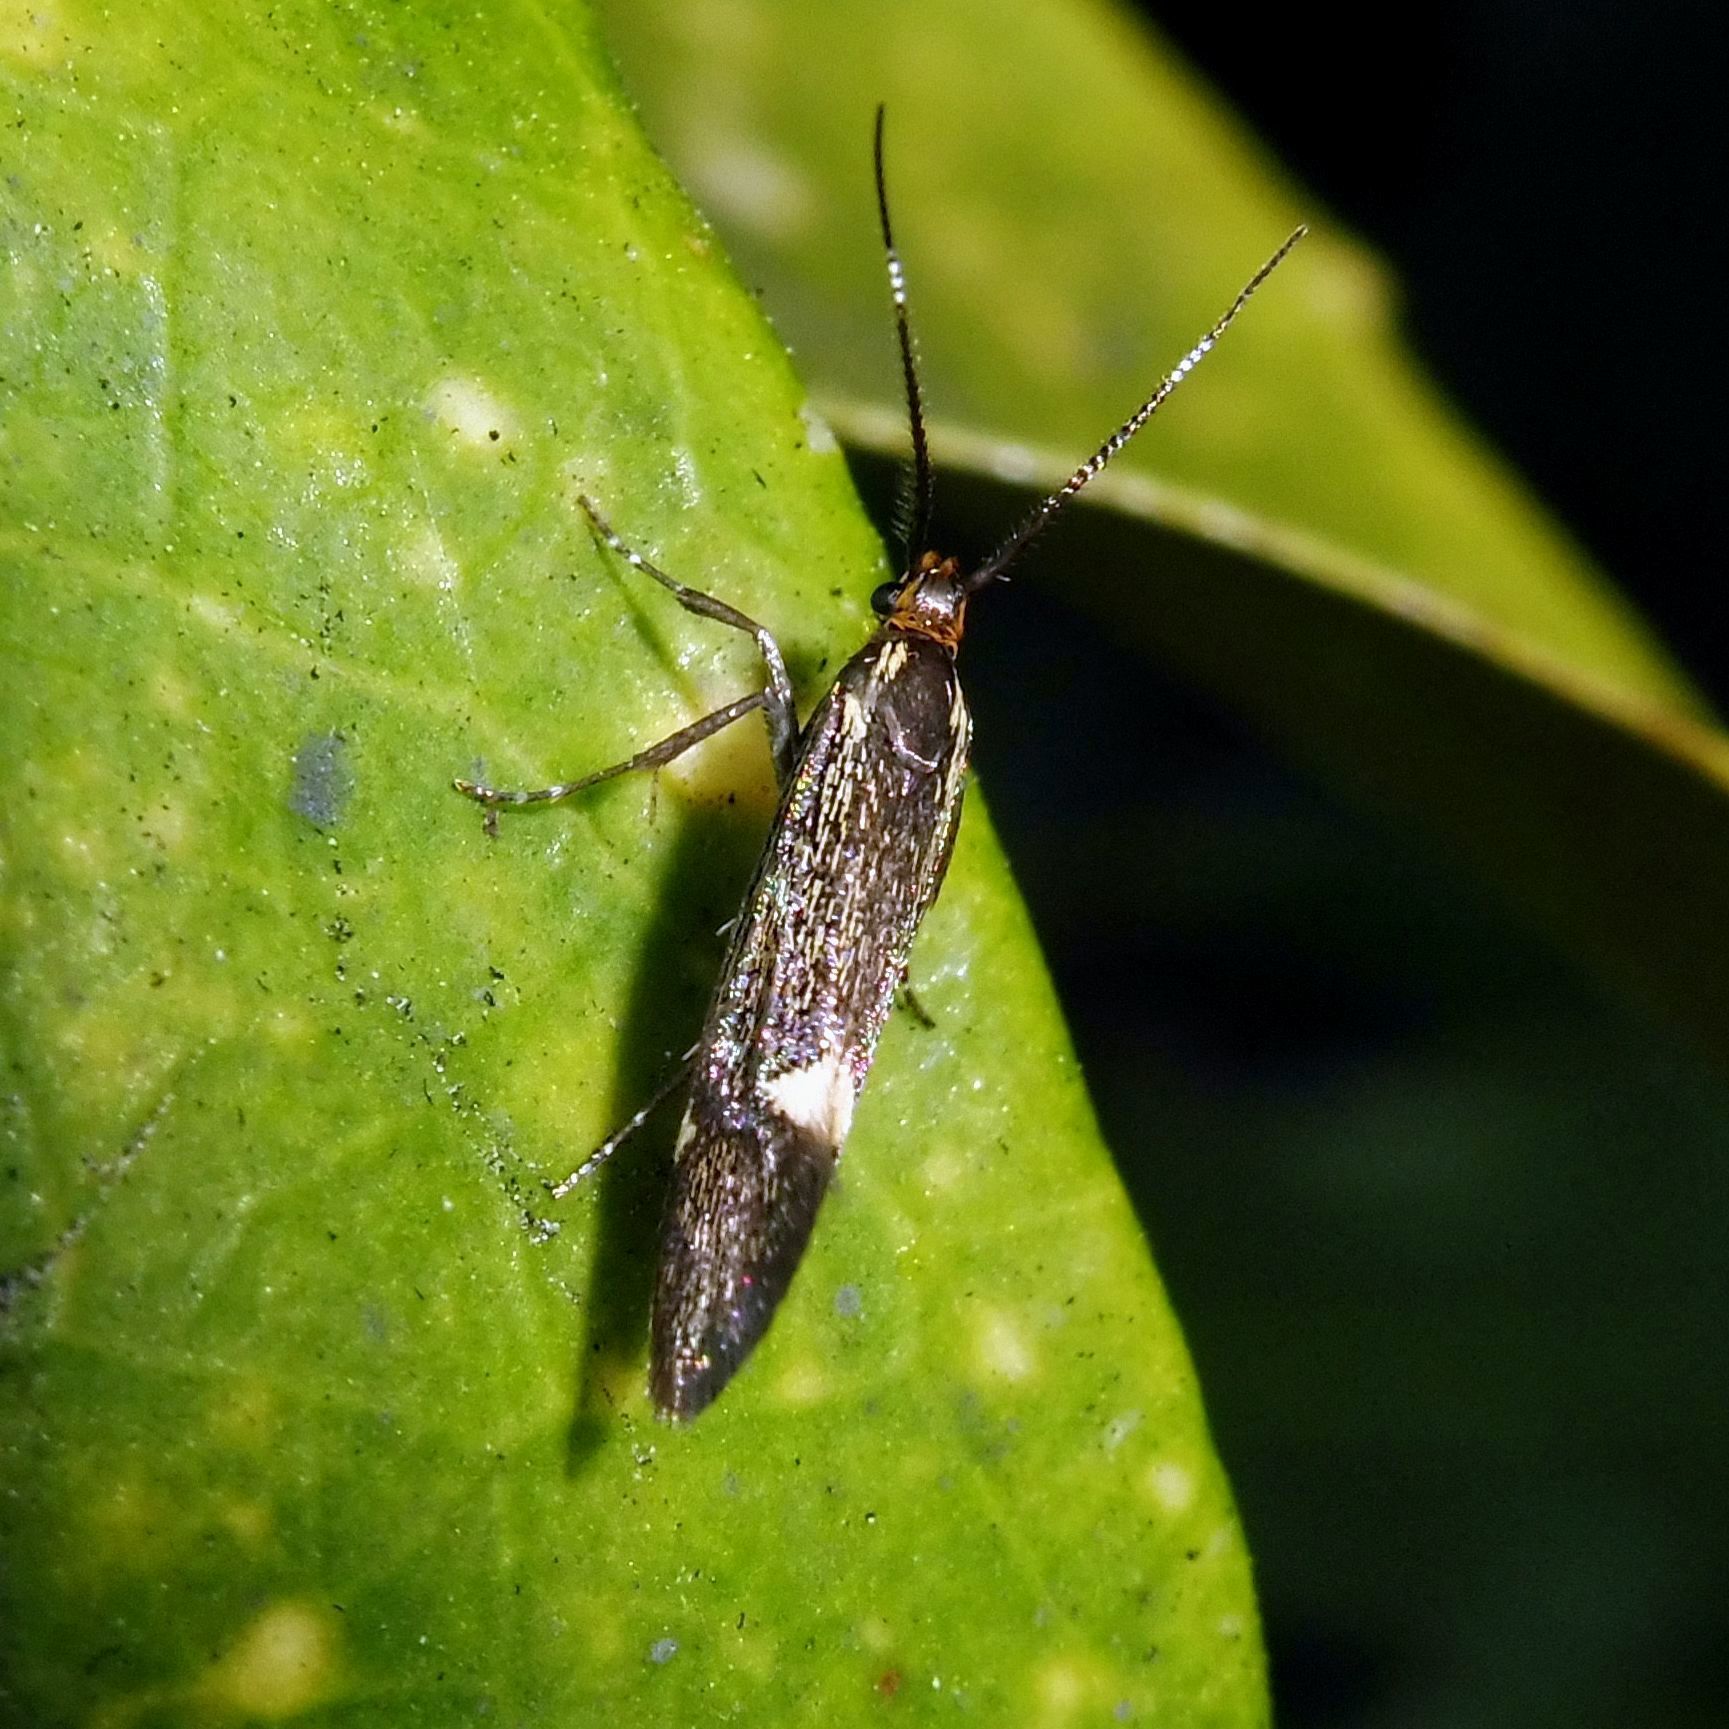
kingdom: Animalia
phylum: Arthropoda
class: Insecta
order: Lepidoptera
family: Oecophoridae
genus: Dafa
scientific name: Dafa Esperia sulphurella
